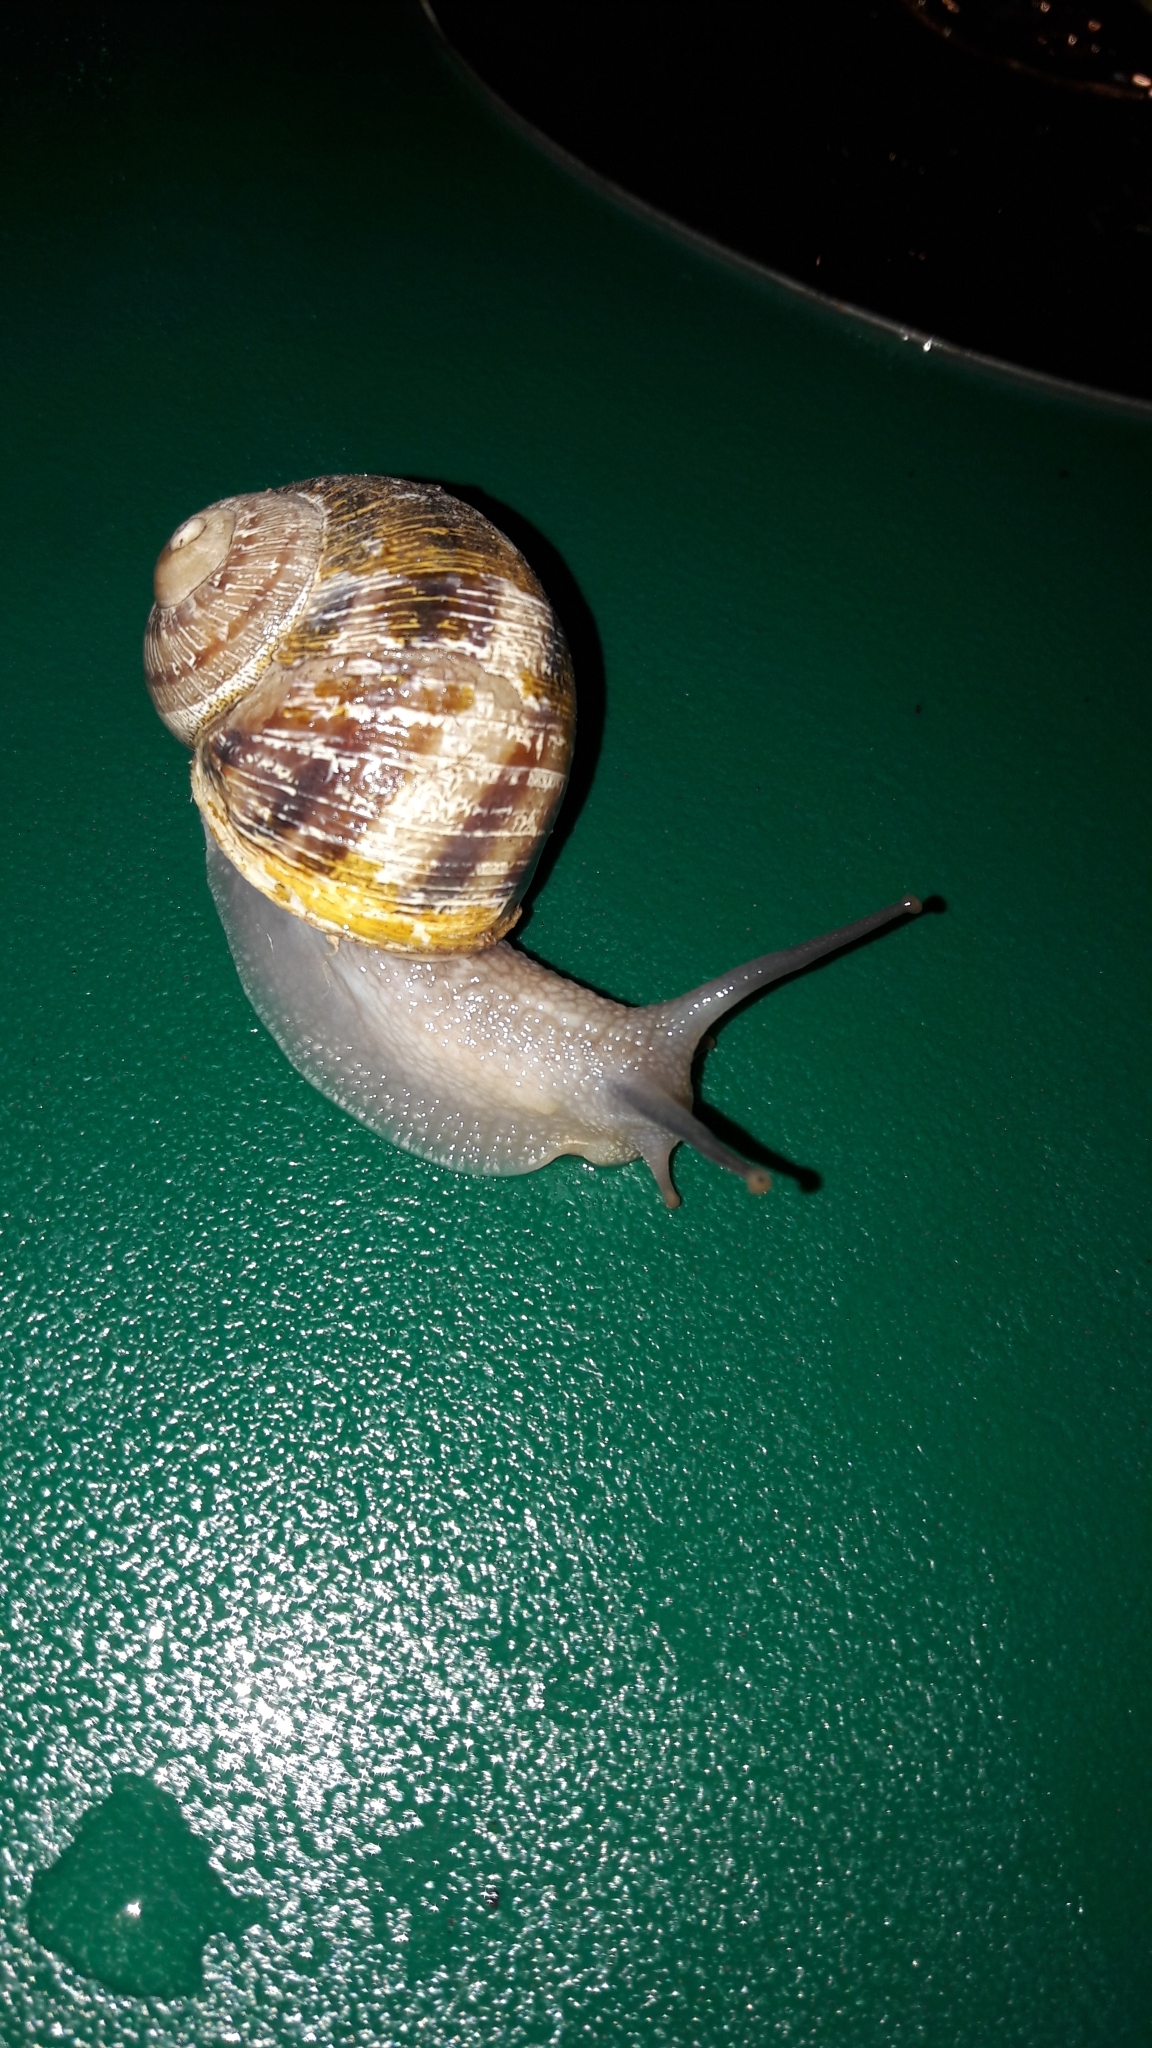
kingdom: Animalia
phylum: Mollusca
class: Gastropoda
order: Stylommatophora
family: Helicidae
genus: Cornu
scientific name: Cornu aspersum
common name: Brown garden snail
